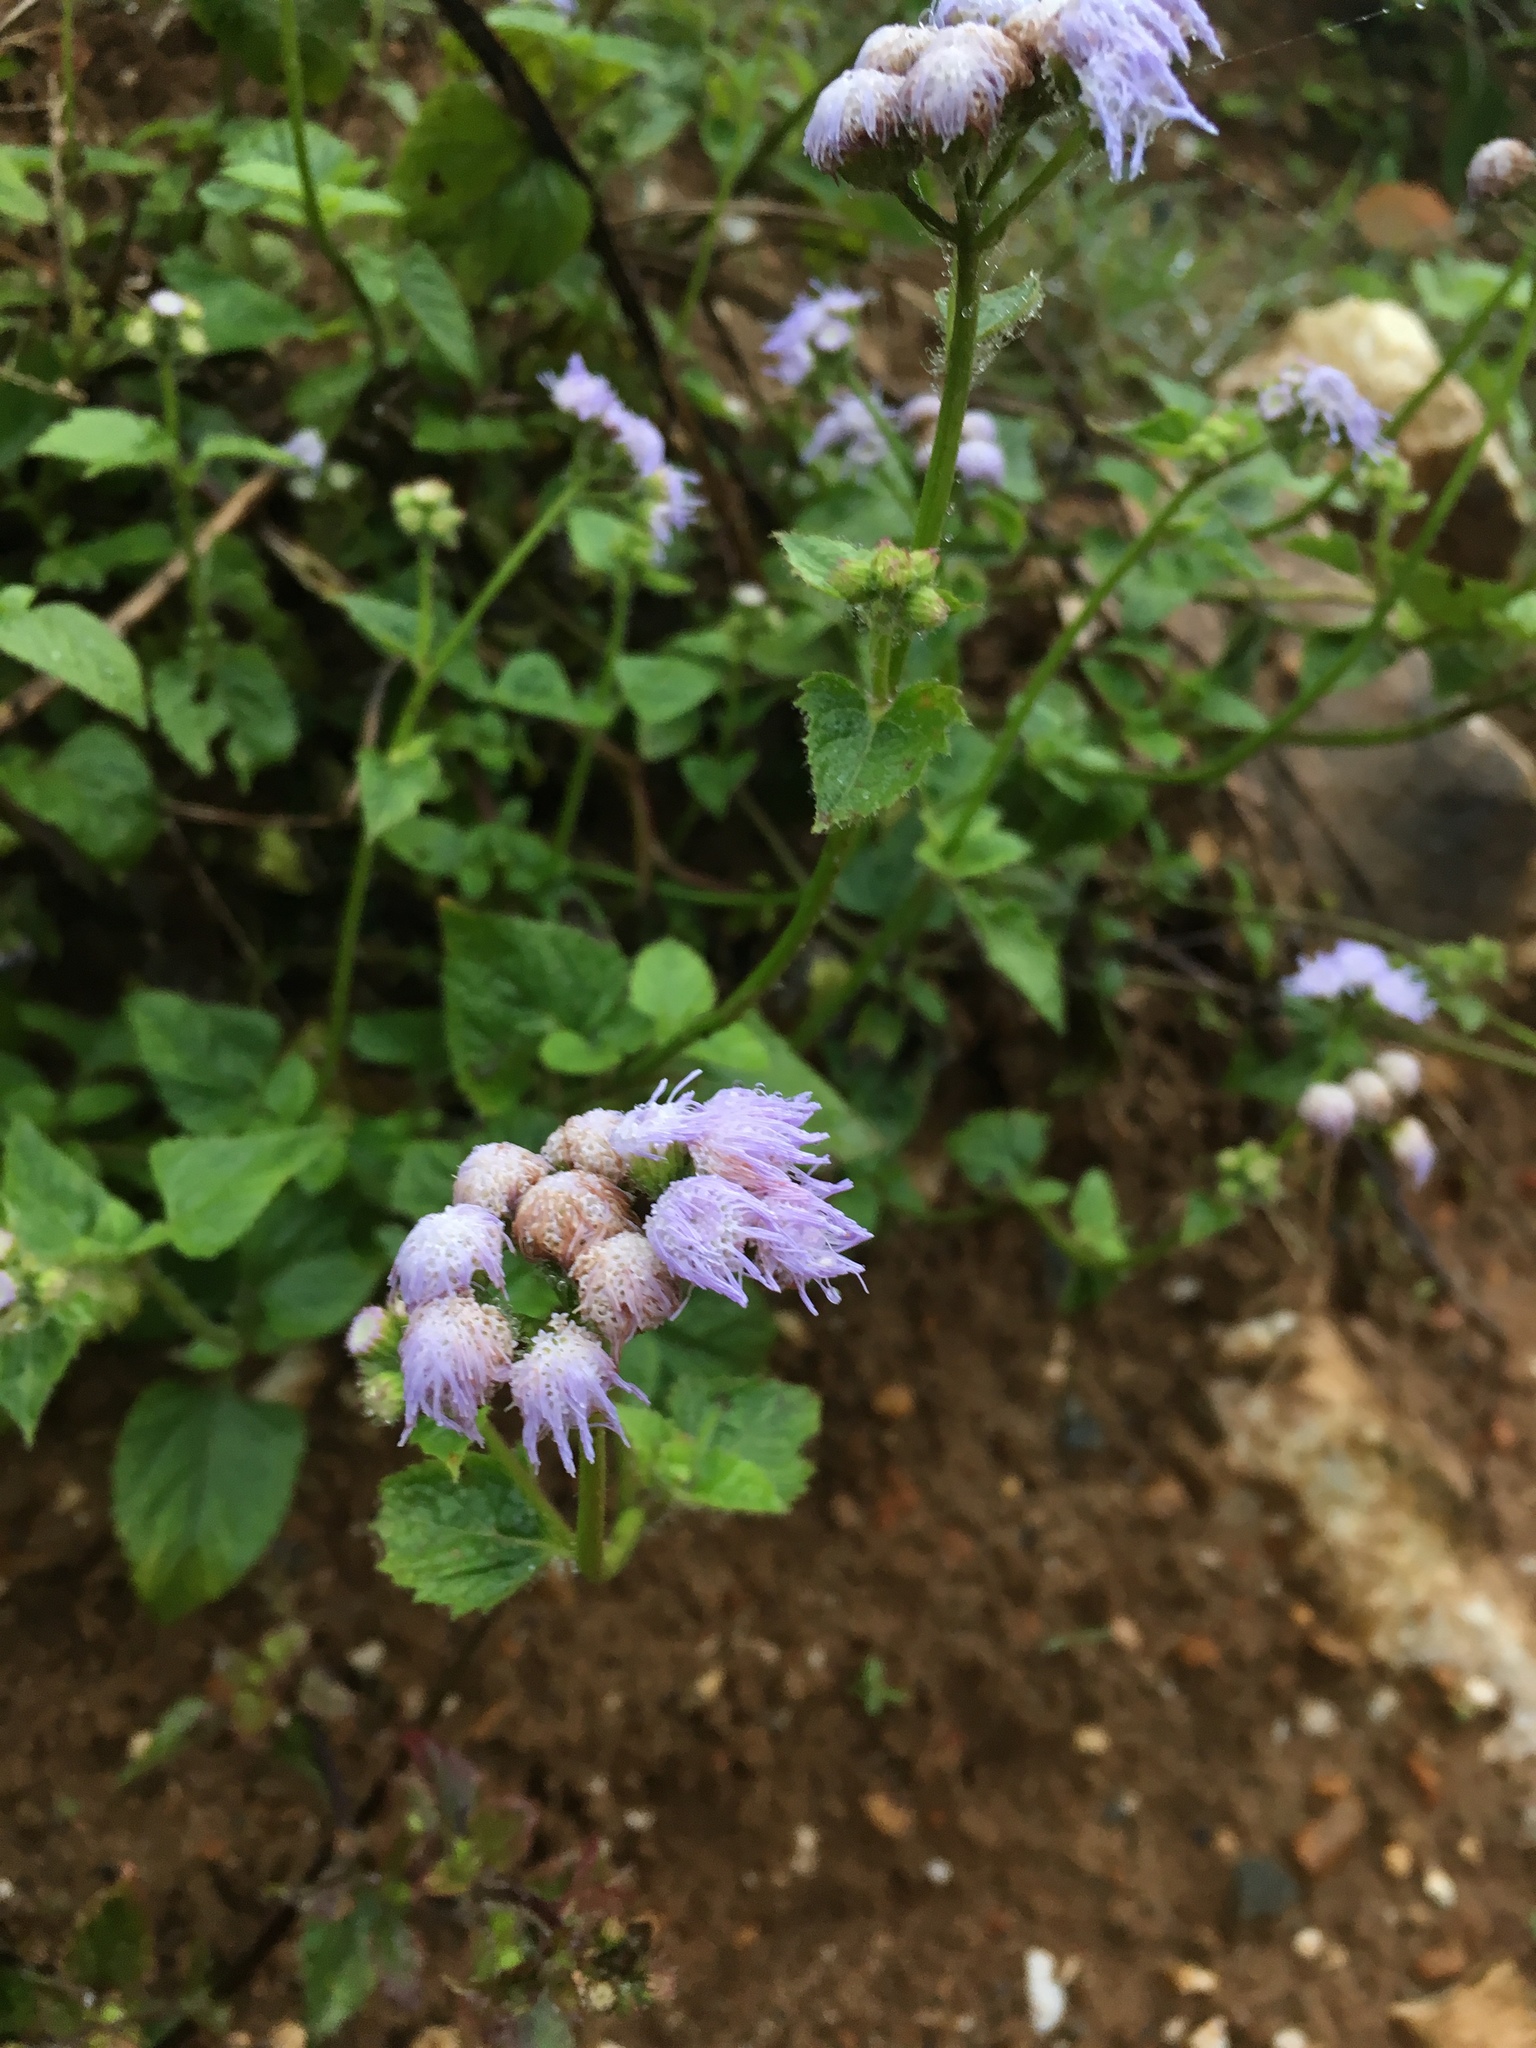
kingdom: Plantae
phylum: Tracheophyta
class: Magnoliopsida
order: Asterales
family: Asteraceae
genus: Ageratum
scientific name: Ageratum houstonianum
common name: Bluemink
